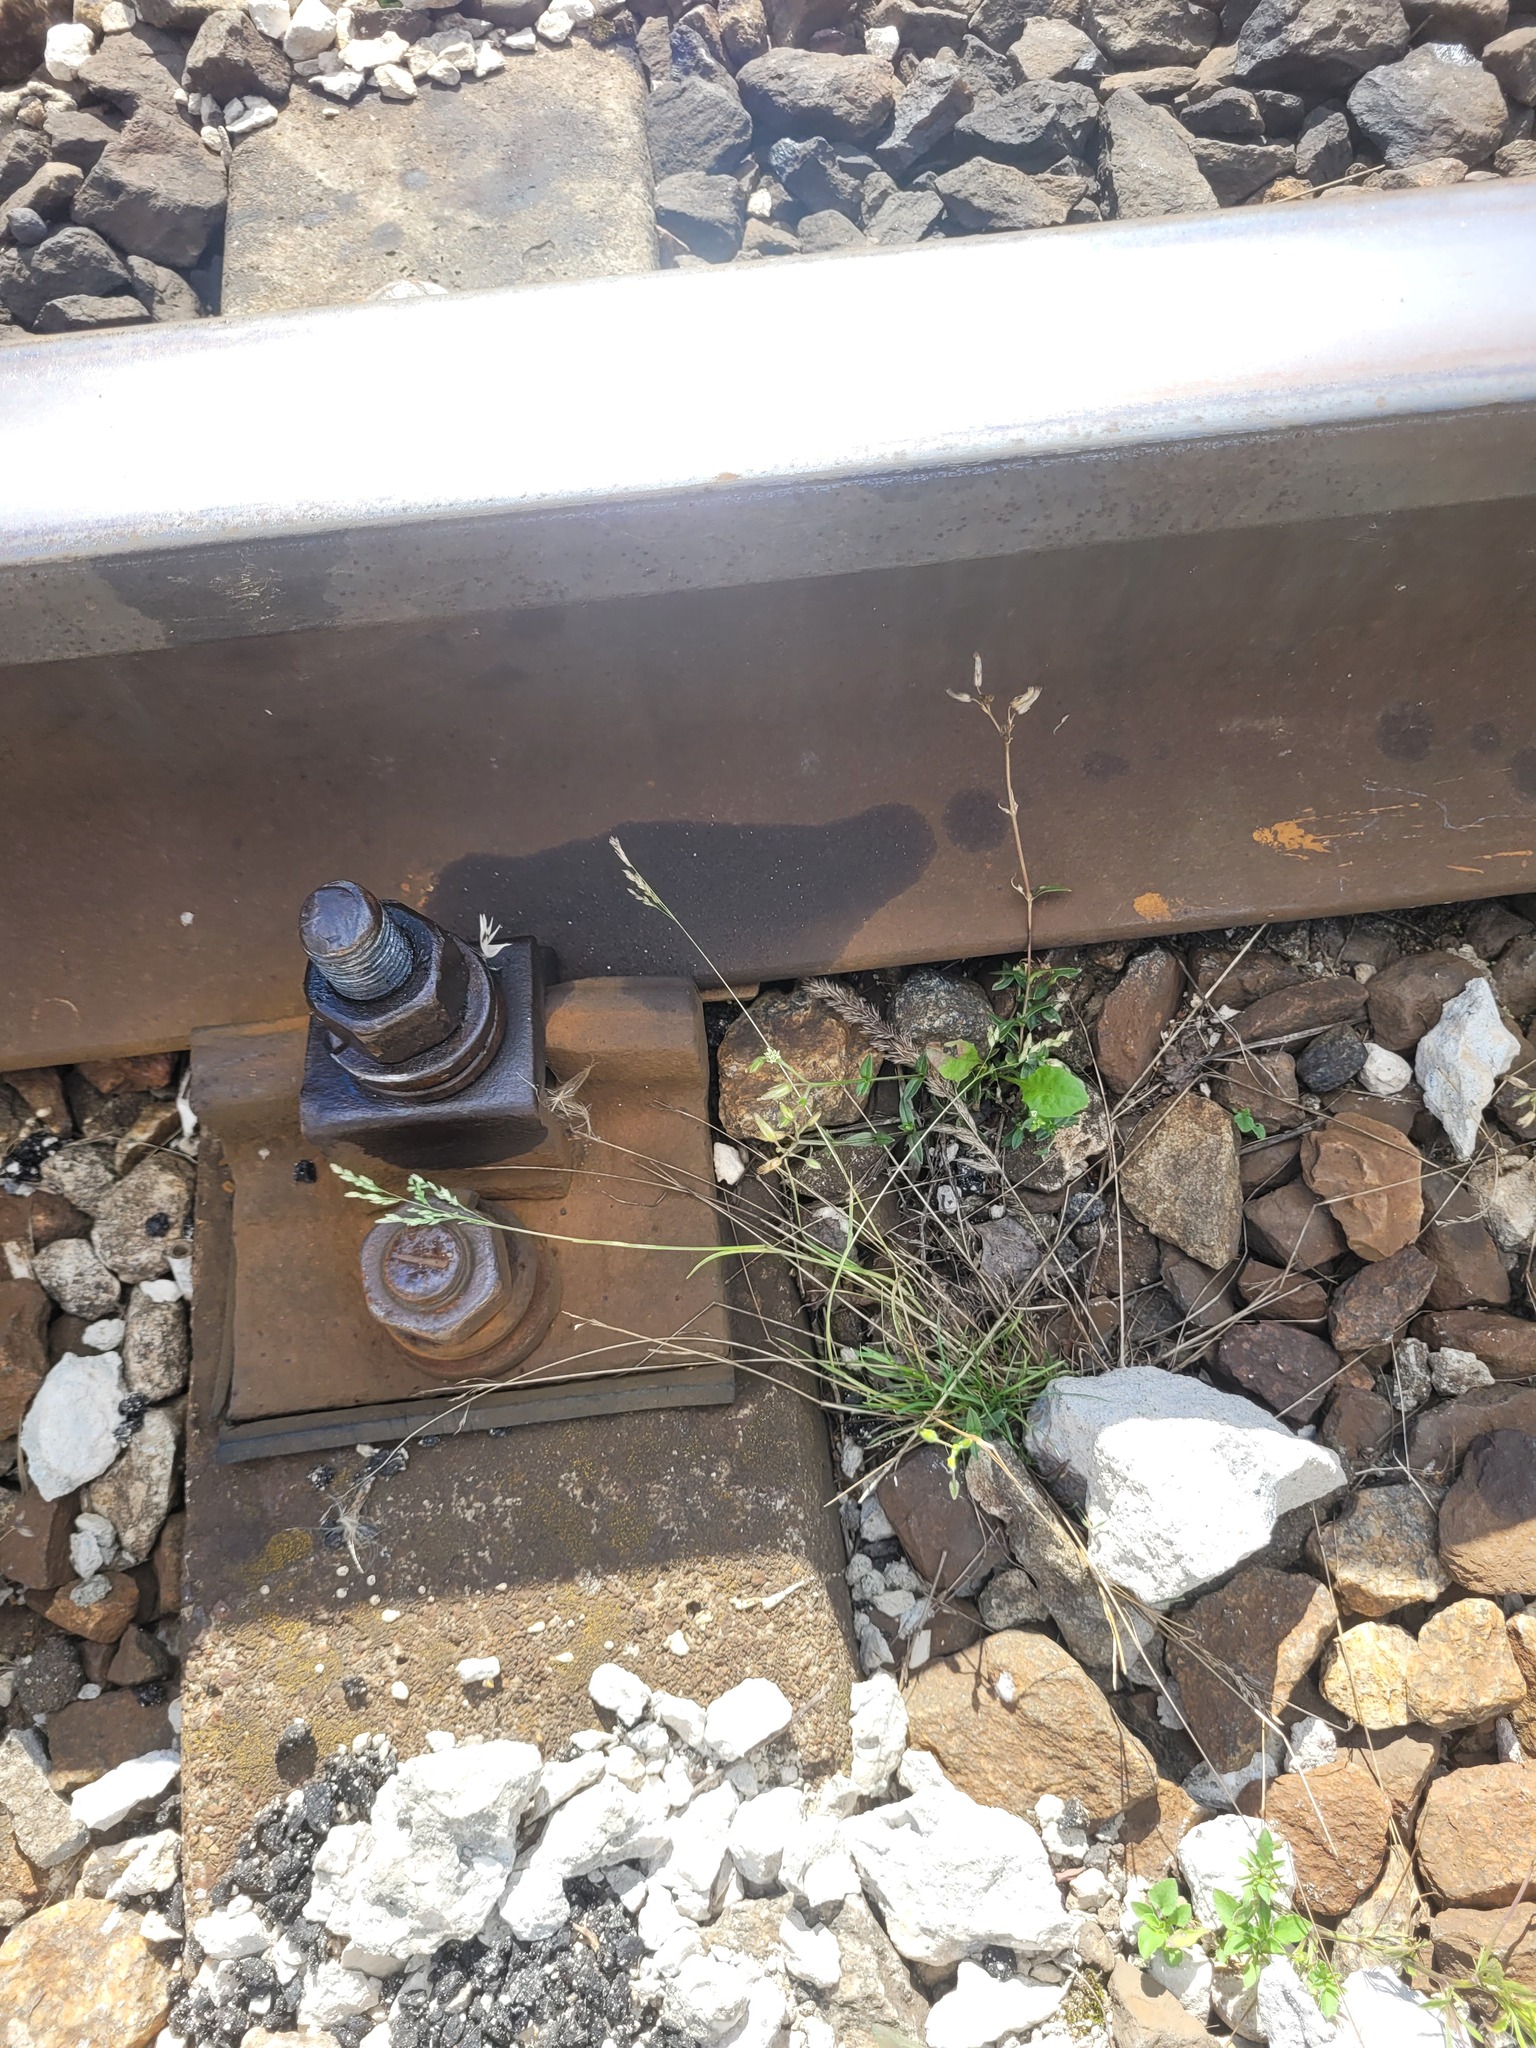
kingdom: Plantae
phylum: Tracheophyta
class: Liliopsida
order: Poales
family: Poaceae
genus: Poa
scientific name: Poa annua
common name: Annual bluegrass
